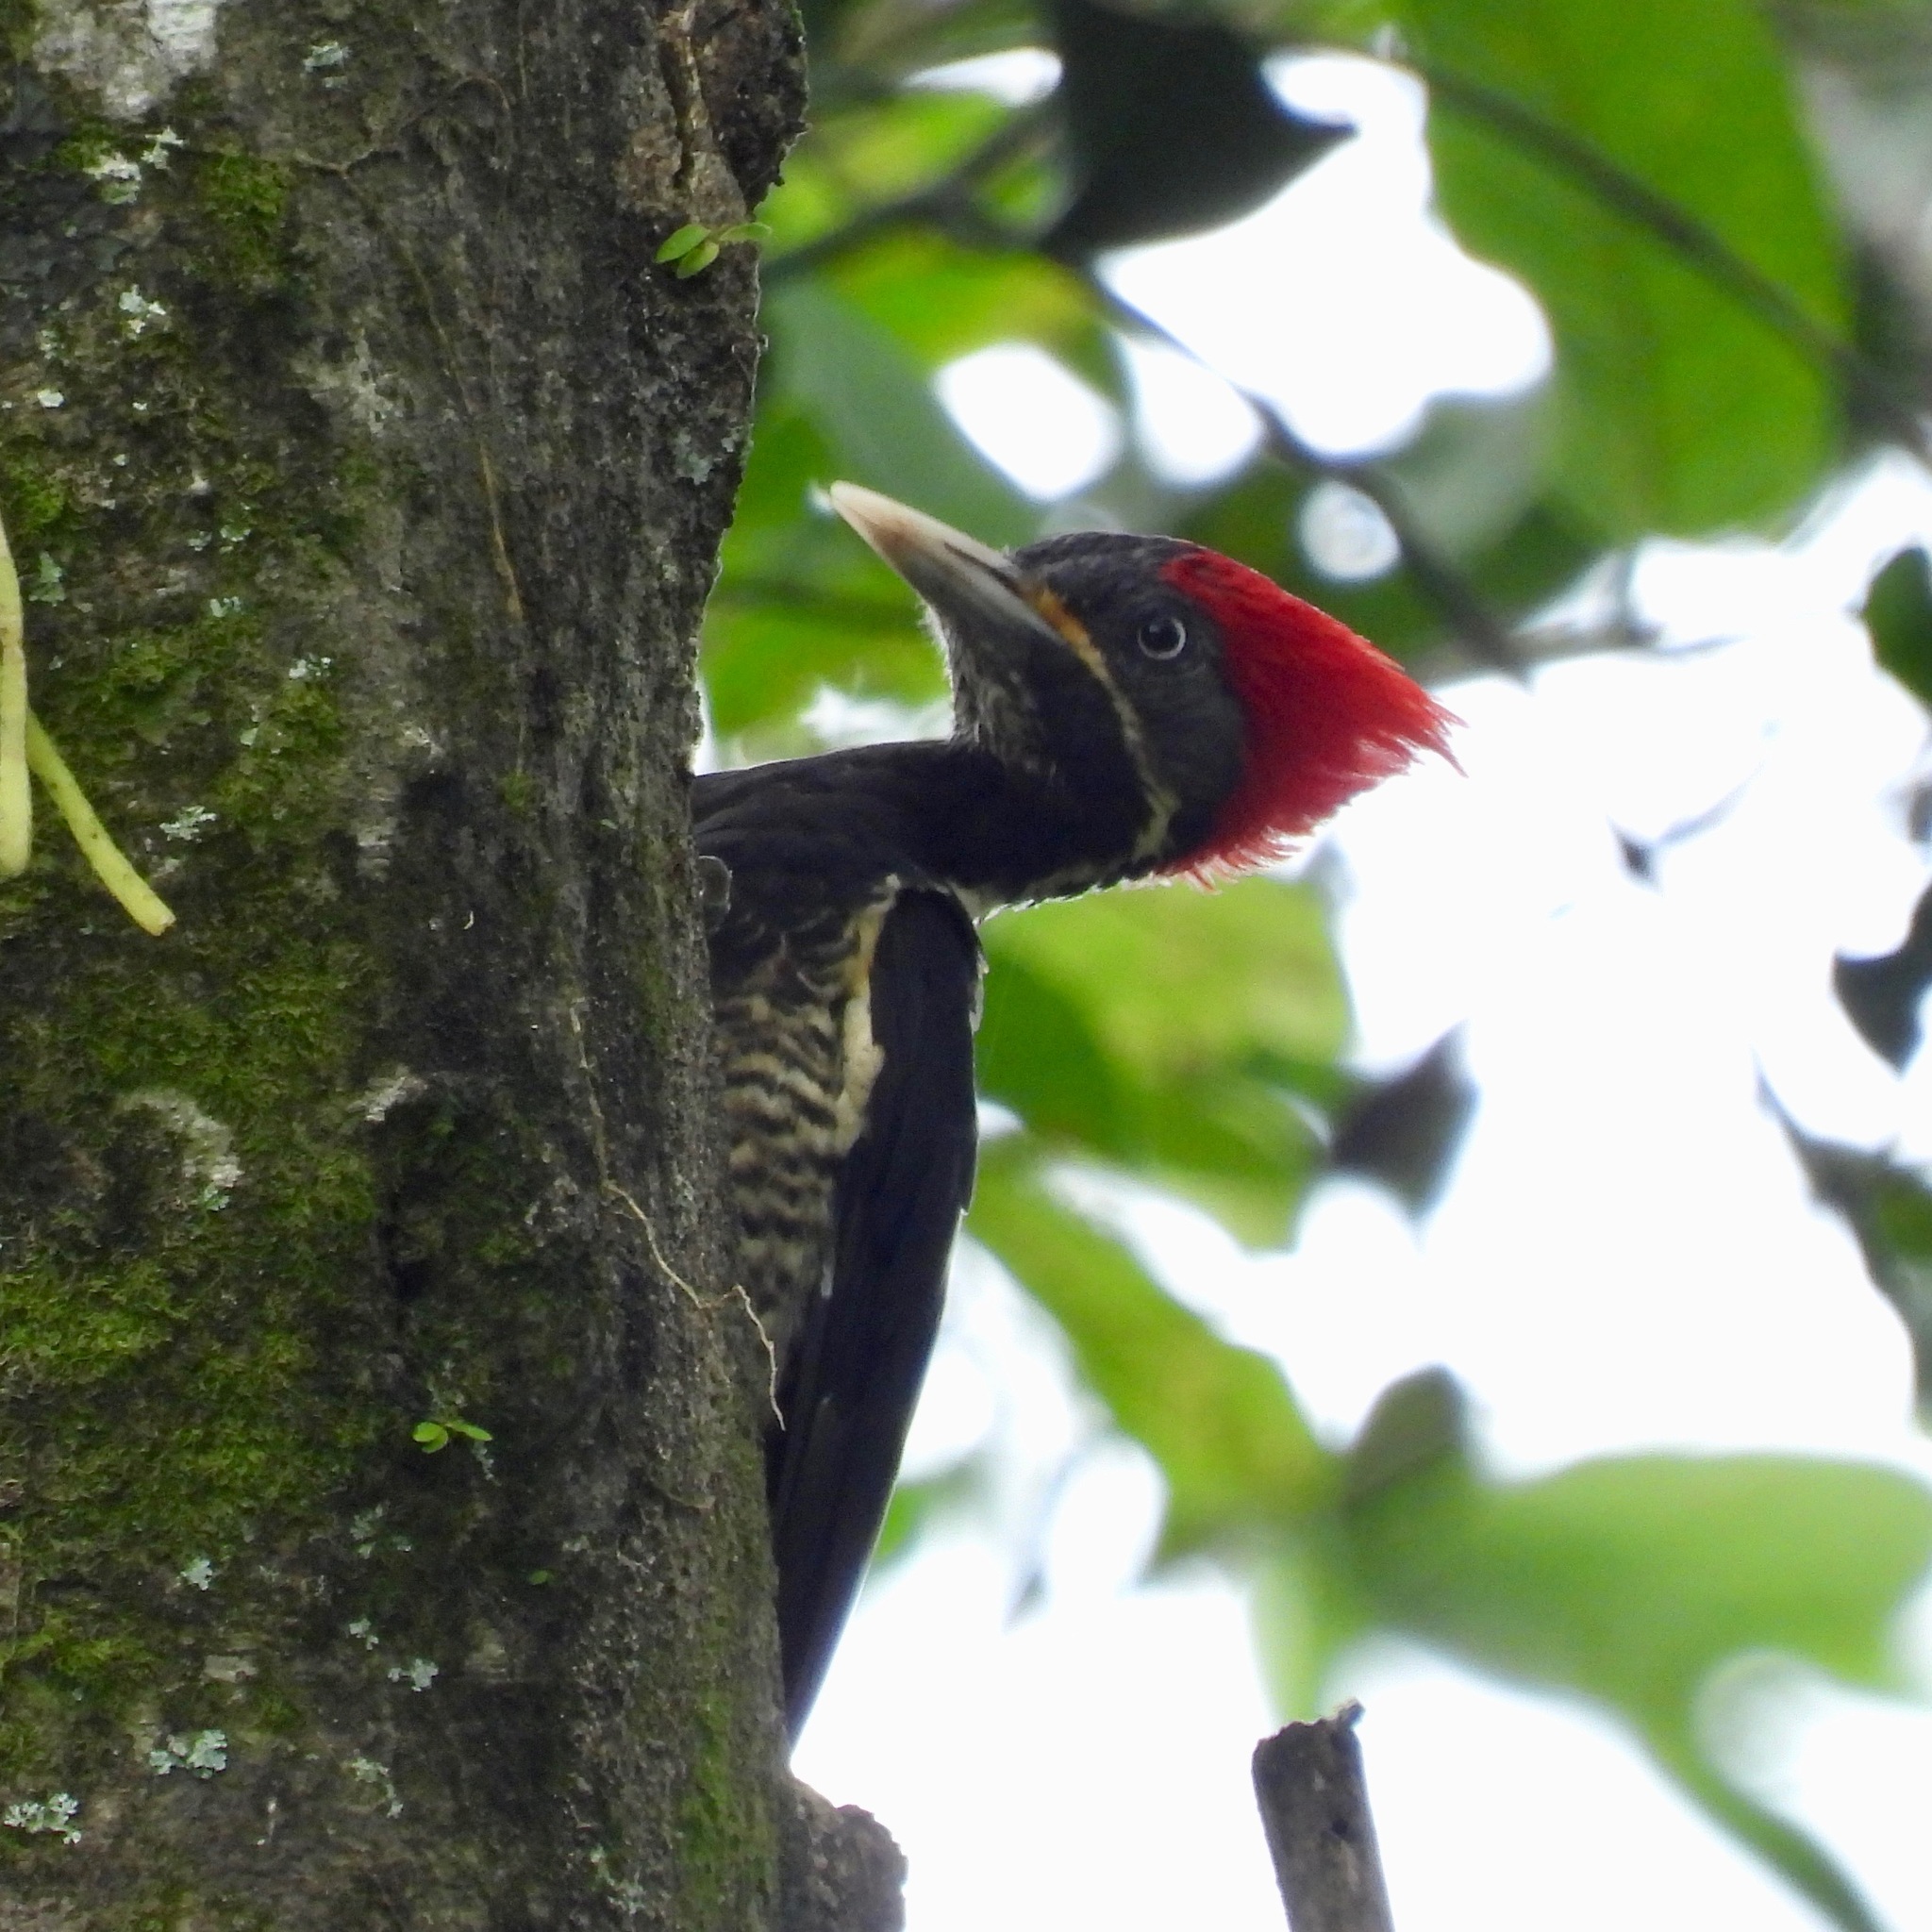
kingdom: Animalia
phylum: Chordata
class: Aves
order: Piciformes
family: Picidae
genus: Dryocopus
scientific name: Dryocopus lineatus
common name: Lineated woodpecker
